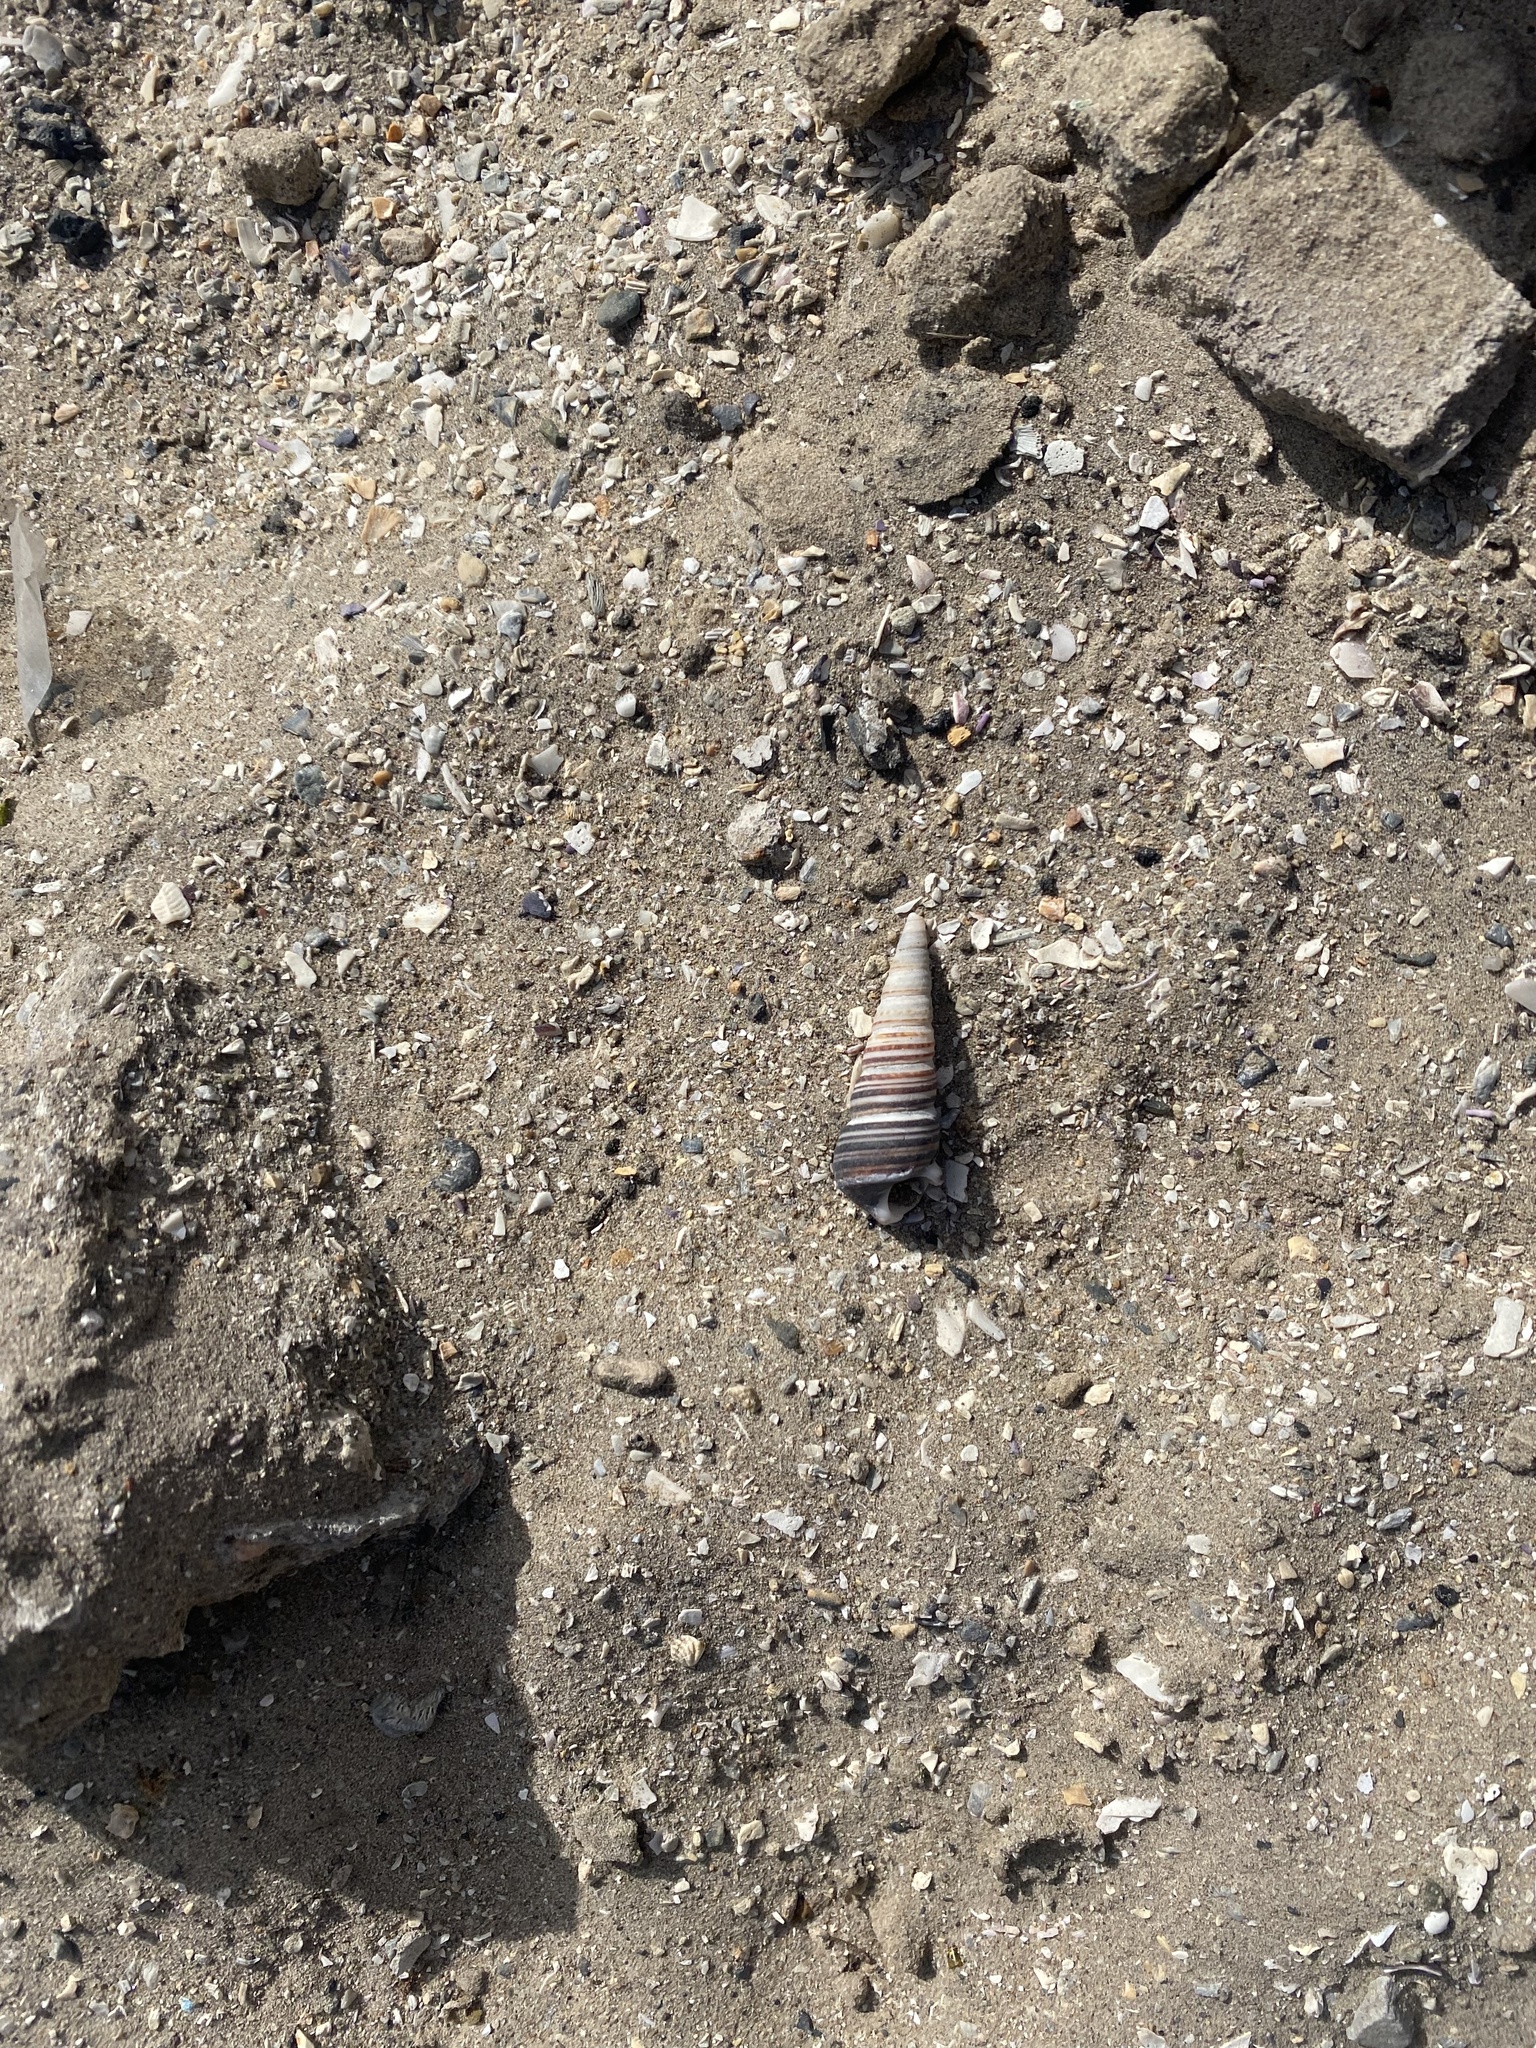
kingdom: Animalia
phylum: Mollusca
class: Gastropoda
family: Turritellidae
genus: Incatella
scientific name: Incatella cingulata
